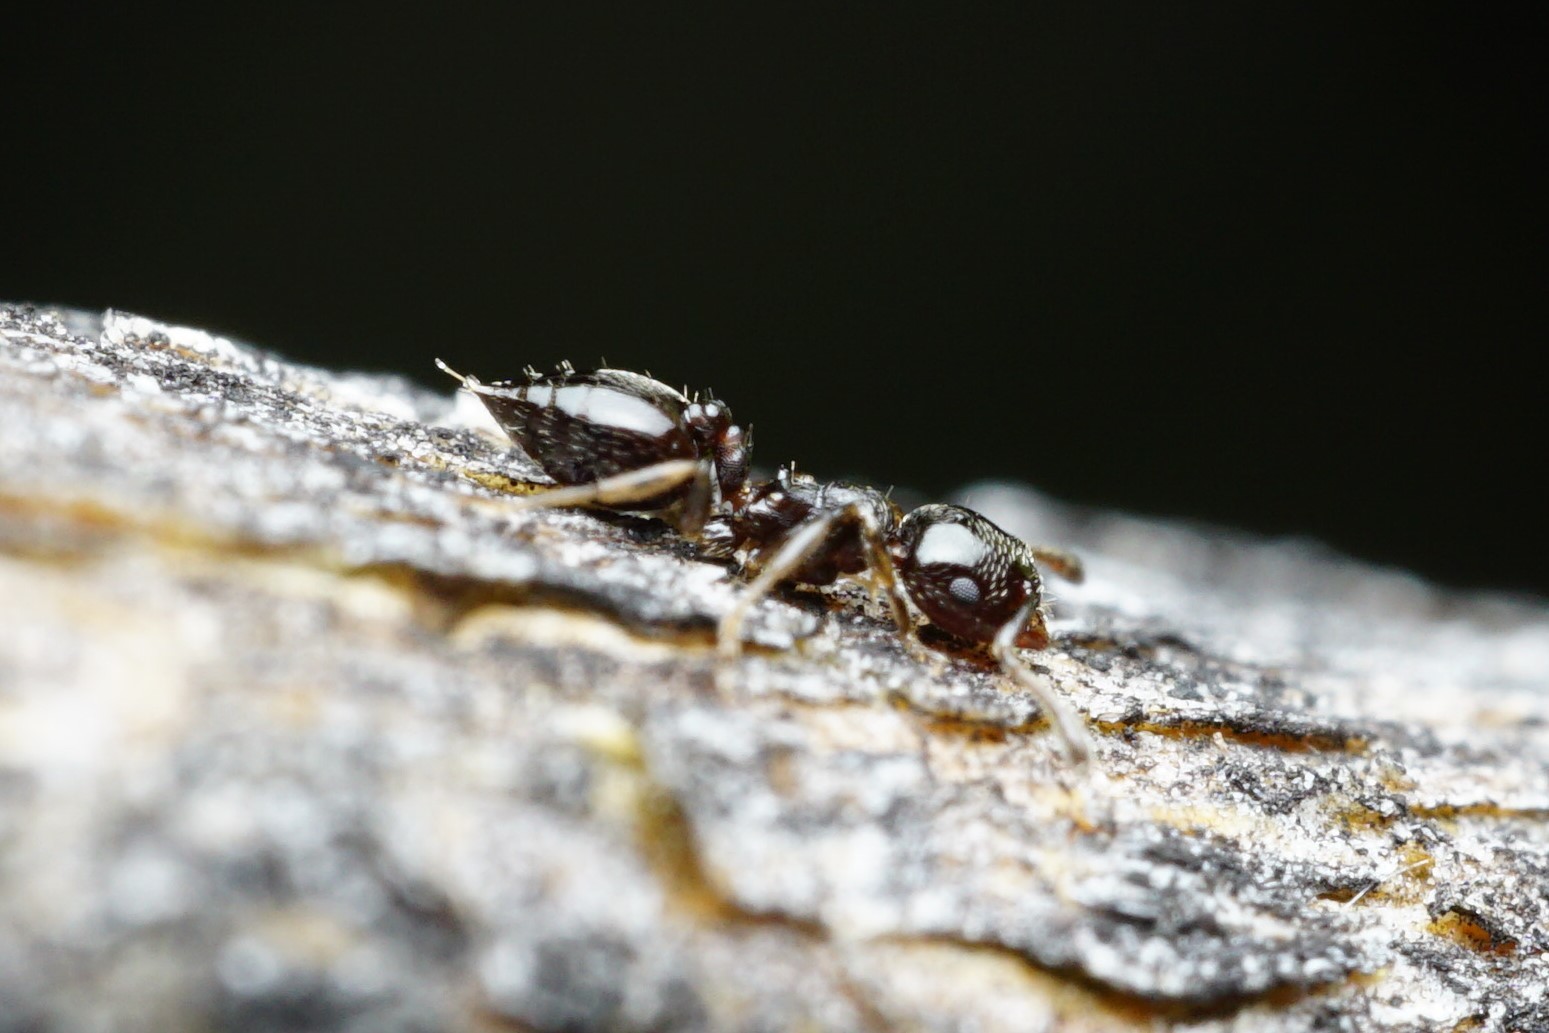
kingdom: Animalia
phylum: Arthropoda
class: Insecta
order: Hymenoptera
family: Formicidae
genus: Crematogaster
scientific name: Crematogaster torosa
